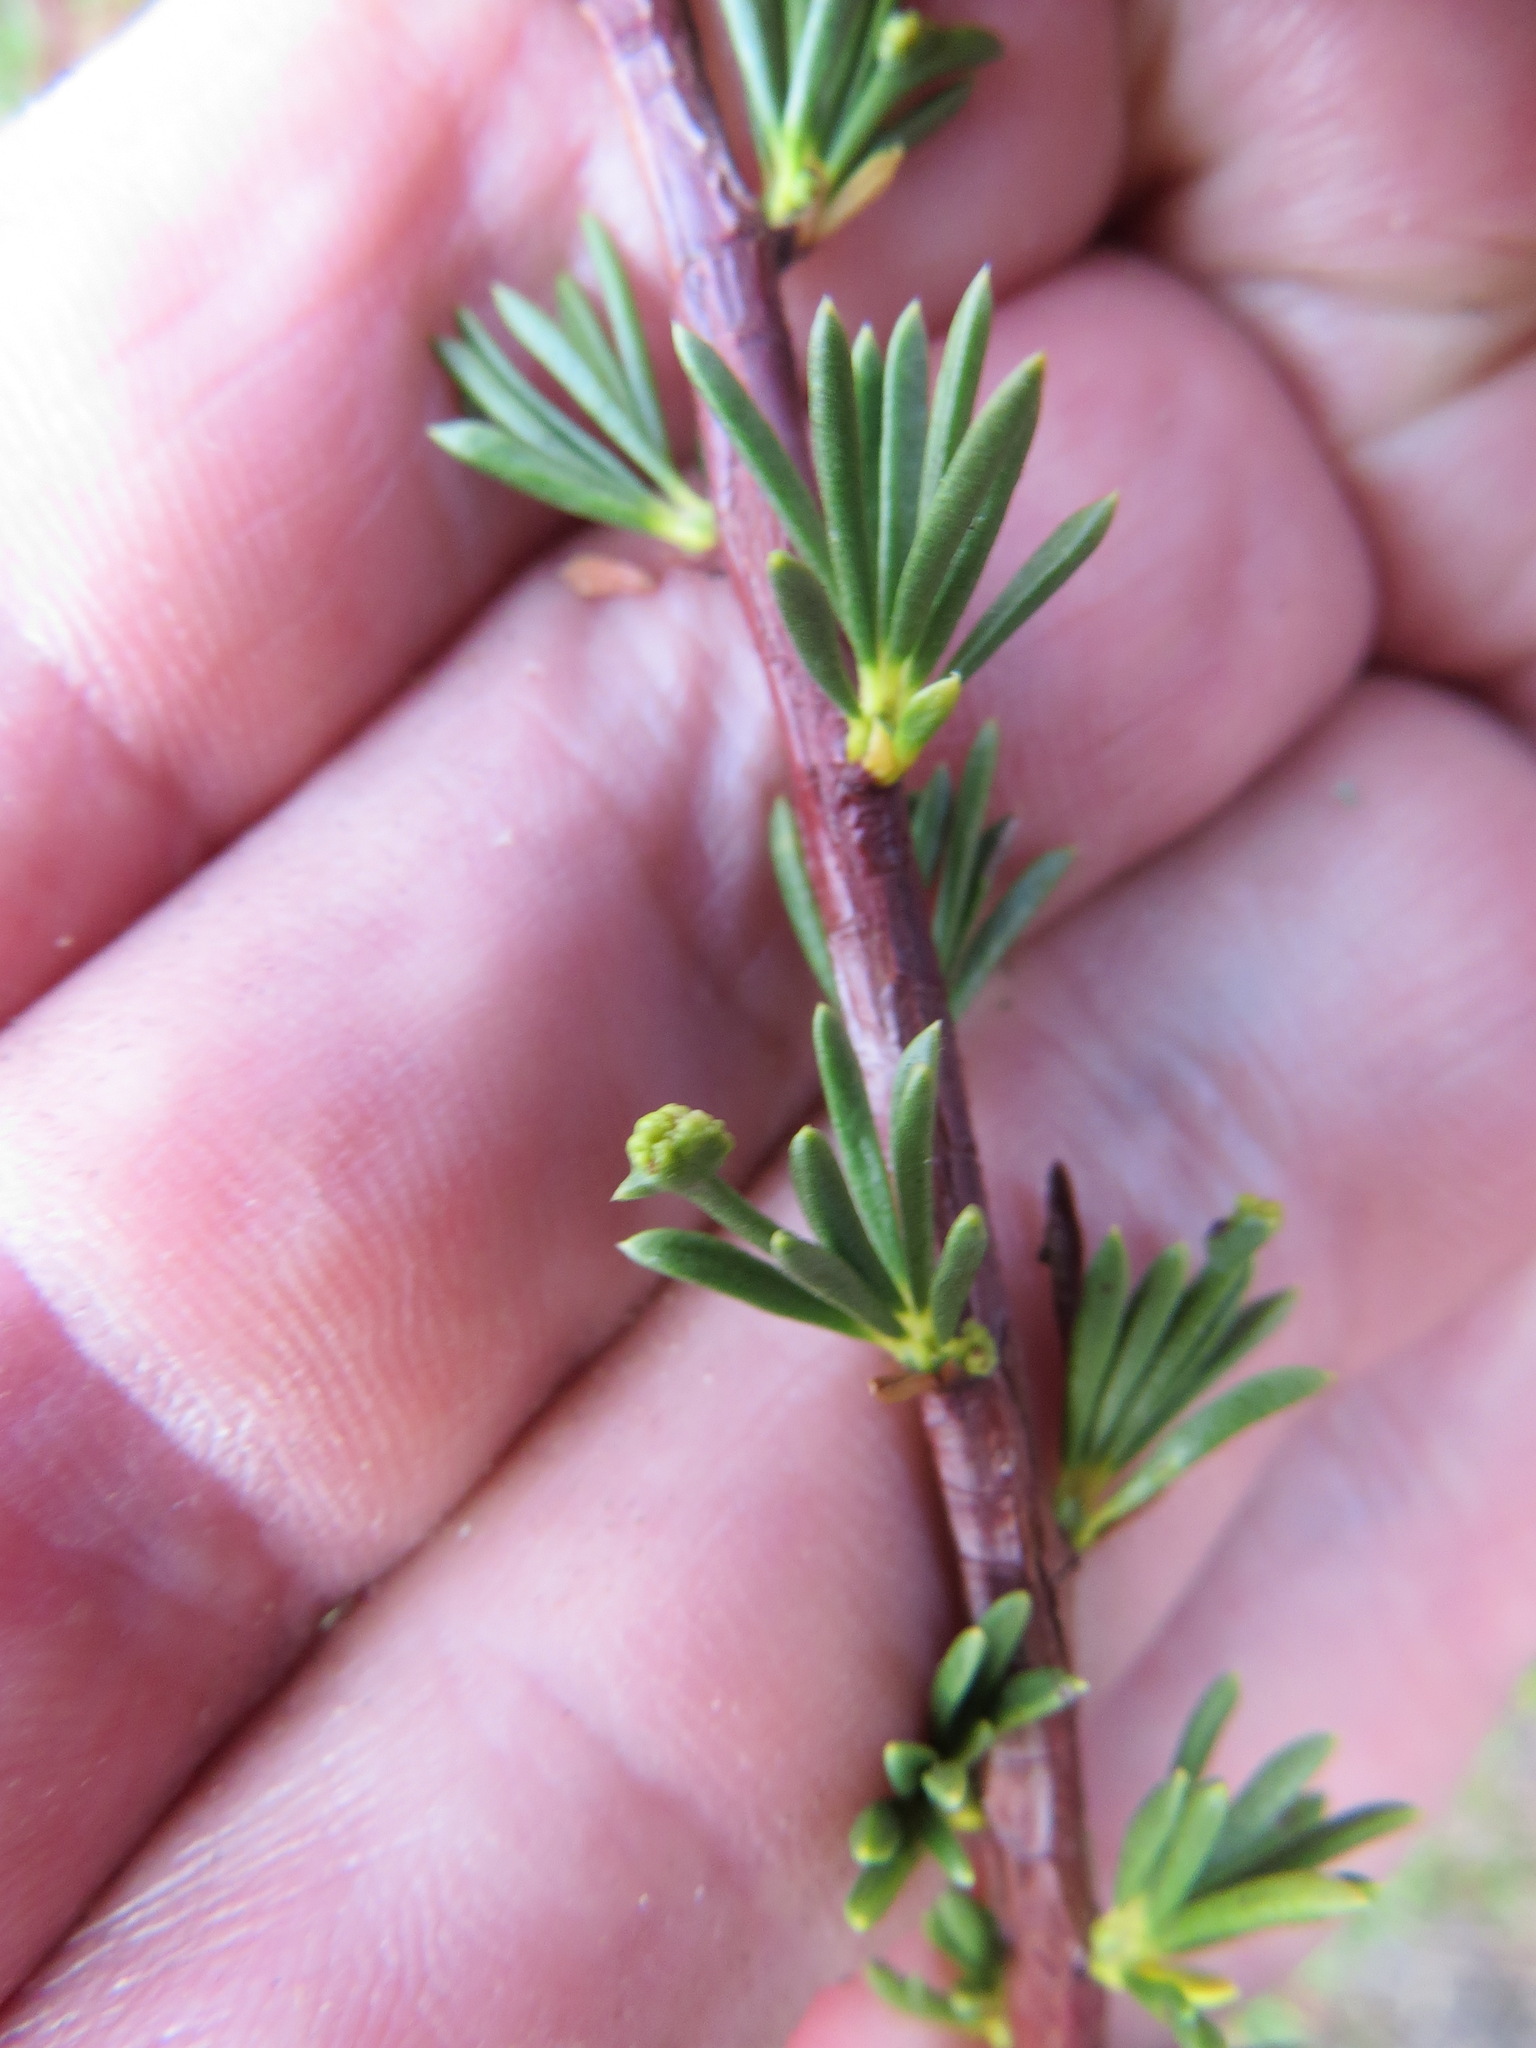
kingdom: Animalia
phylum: Arthropoda
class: Arachnida
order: Trombidiformes
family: Eriophyidae
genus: Eriophyes
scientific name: Eriophyes
